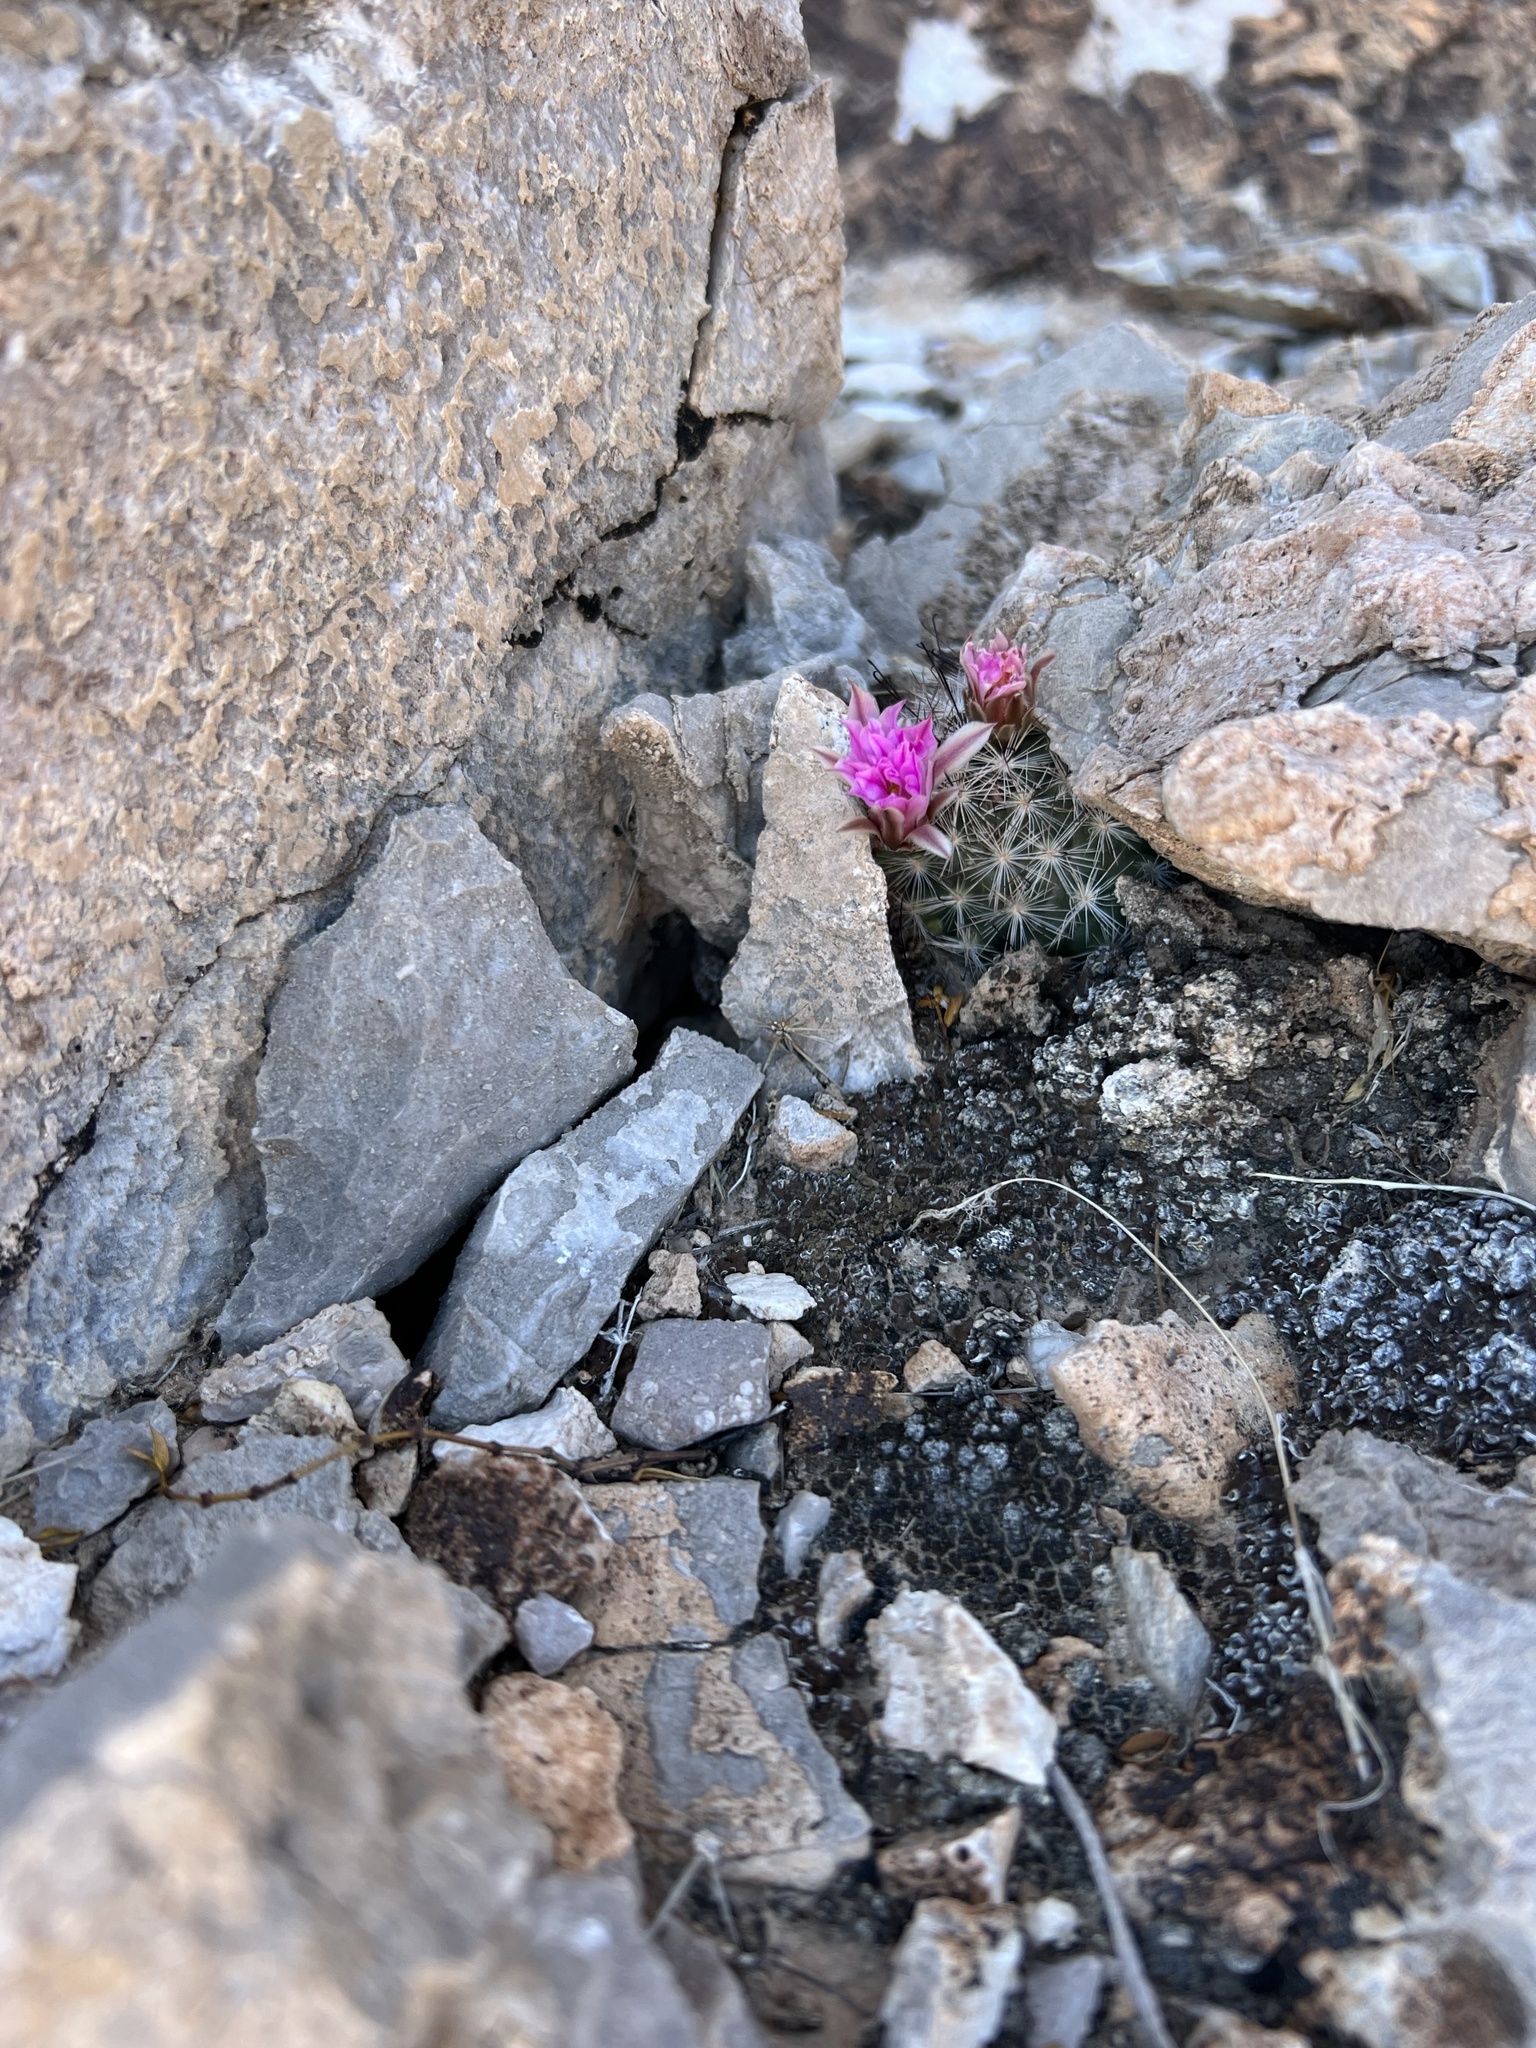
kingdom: Plantae
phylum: Tracheophyta
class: Magnoliopsida
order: Caryophyllales
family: Cactaceae
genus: Cochemiea
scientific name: Cochemiea tetrancistra
